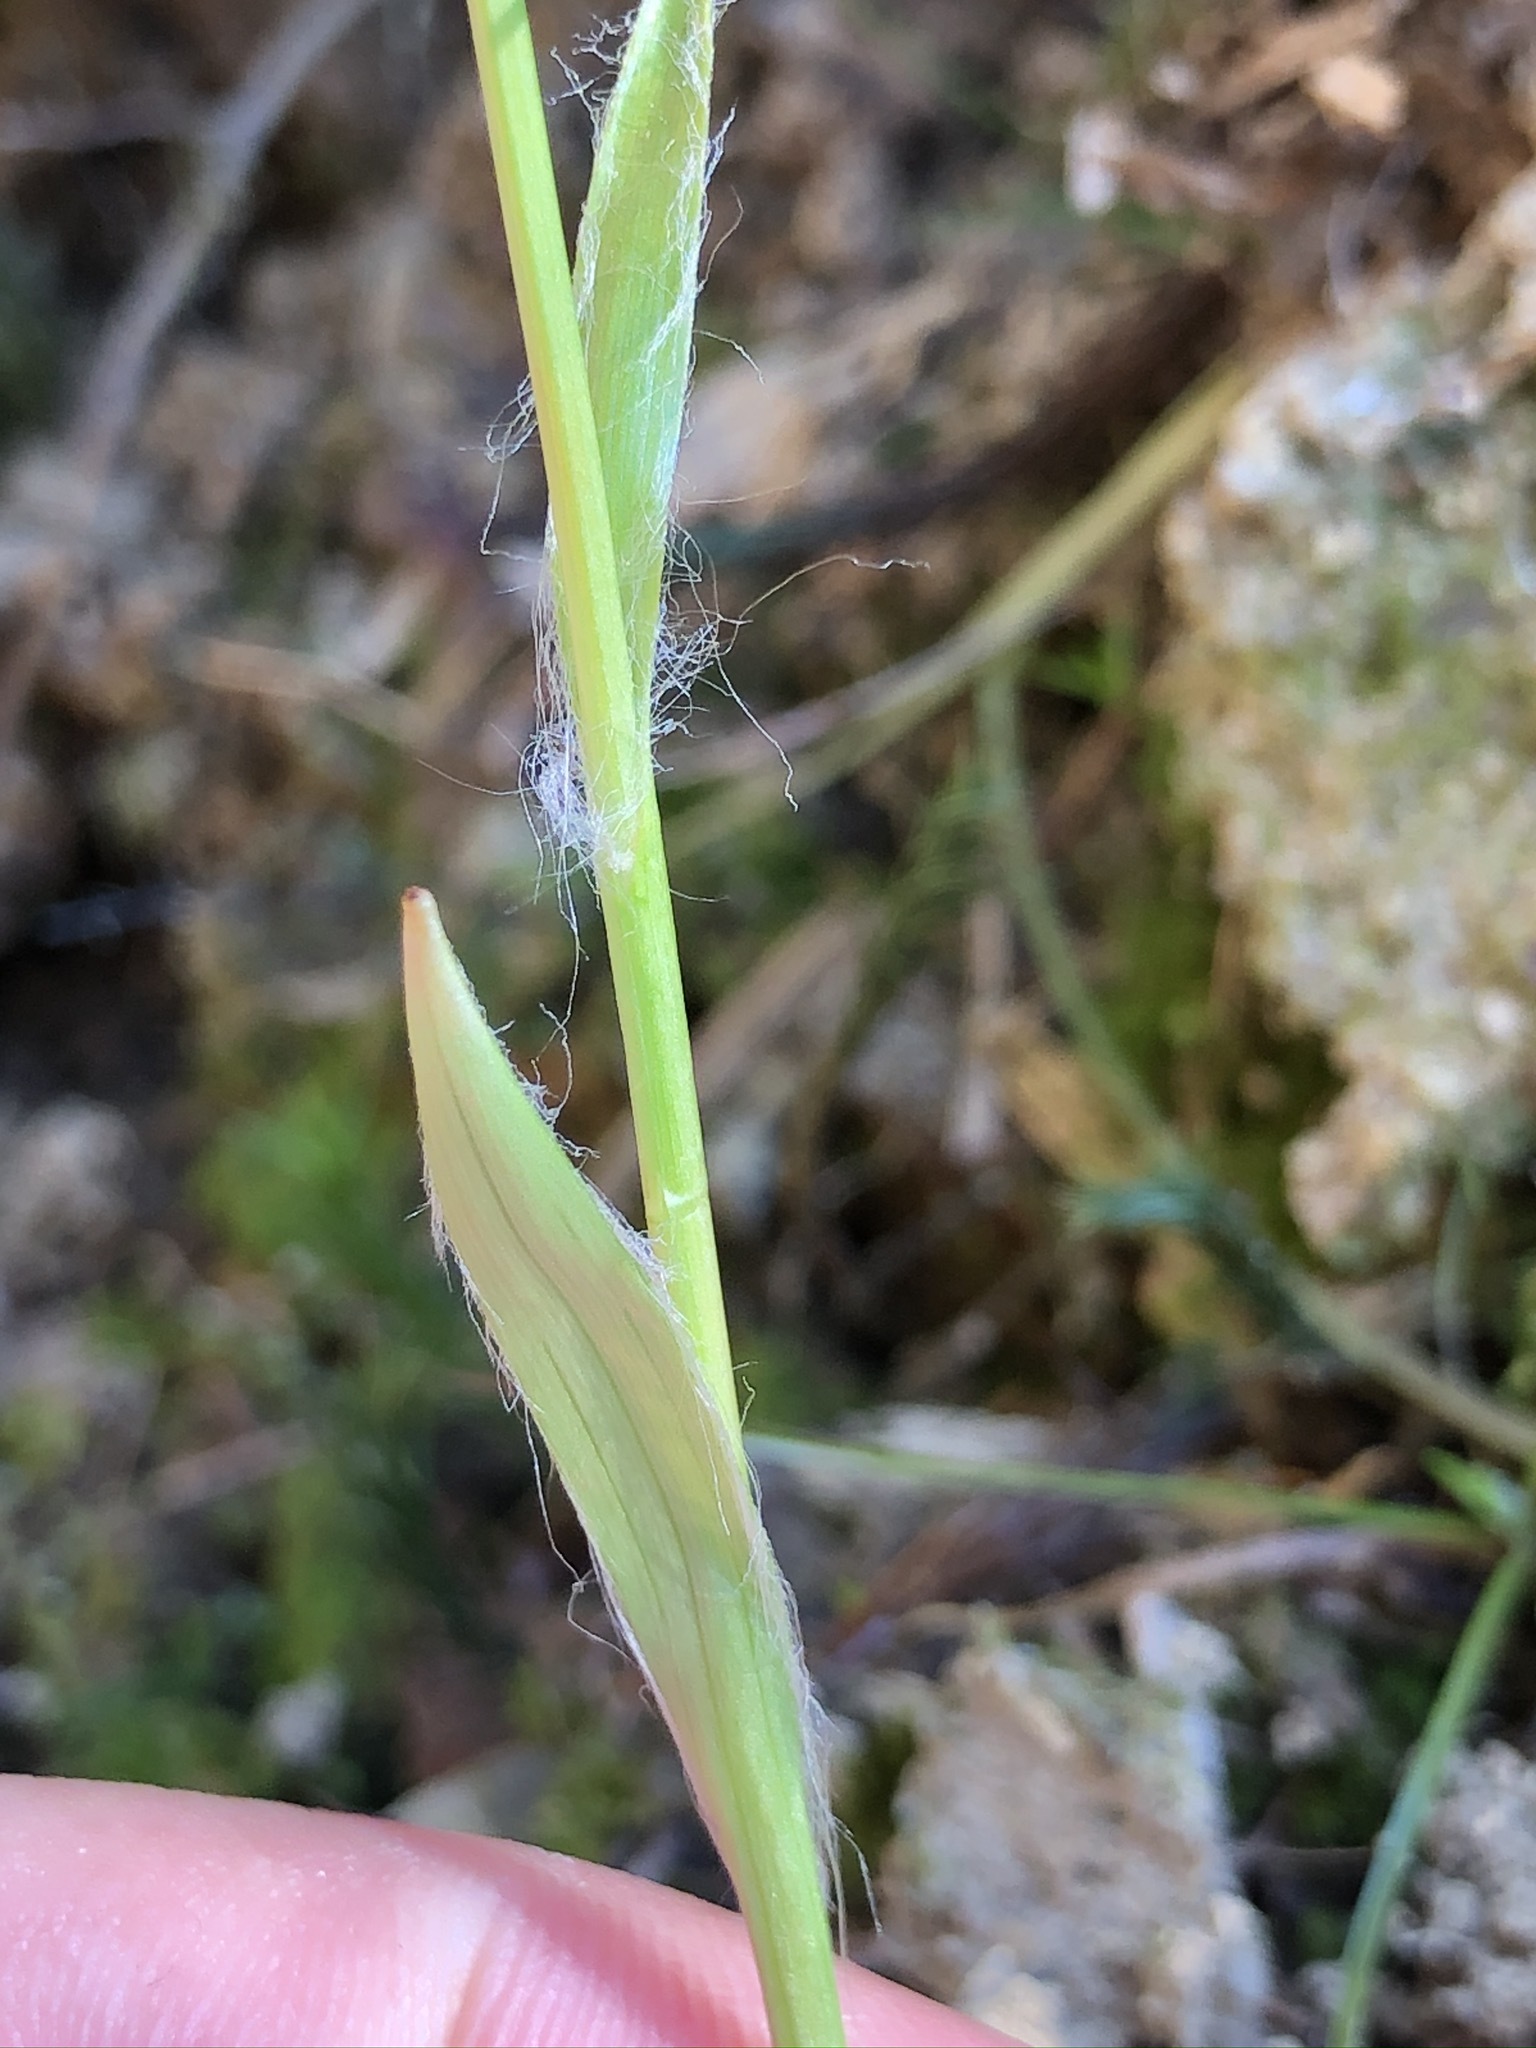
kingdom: Plantae
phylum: Tracheophyta
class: Liliopsida
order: Poales
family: Juncaceae
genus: Luzula
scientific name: Luzula sylvatica
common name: Great wood-rush
